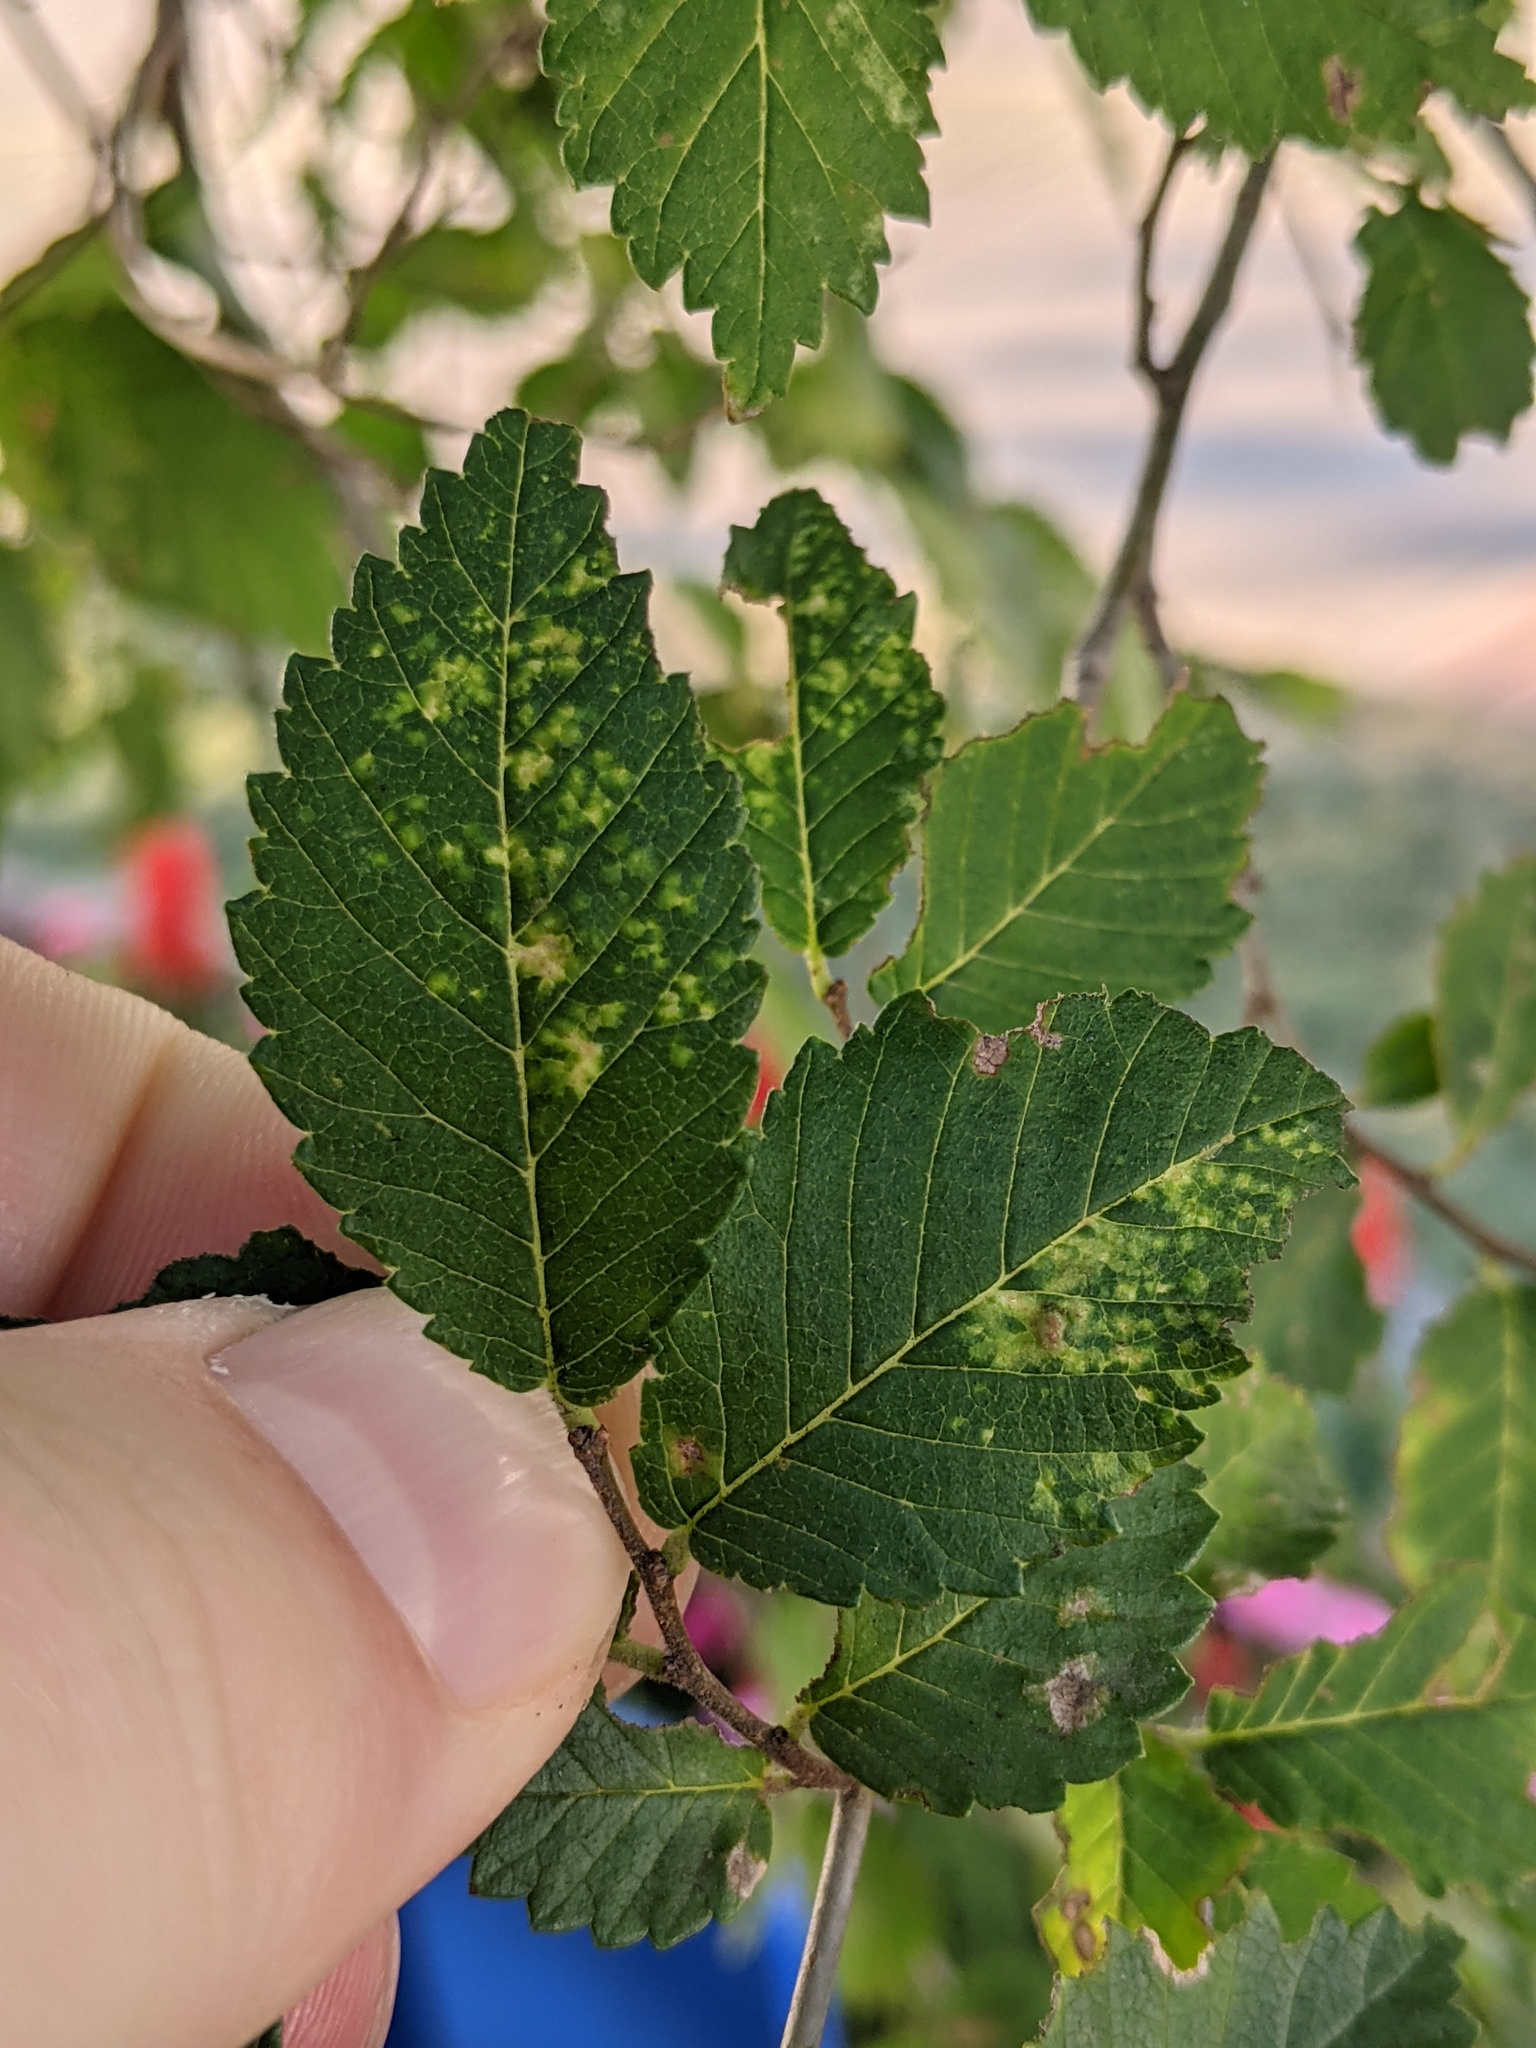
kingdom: Animalia
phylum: Arthropoda
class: Insecta
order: Hemiptera
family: Aphididae
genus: Tetraneura
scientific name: Tetraneura nigriabdominalis
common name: Aphid
